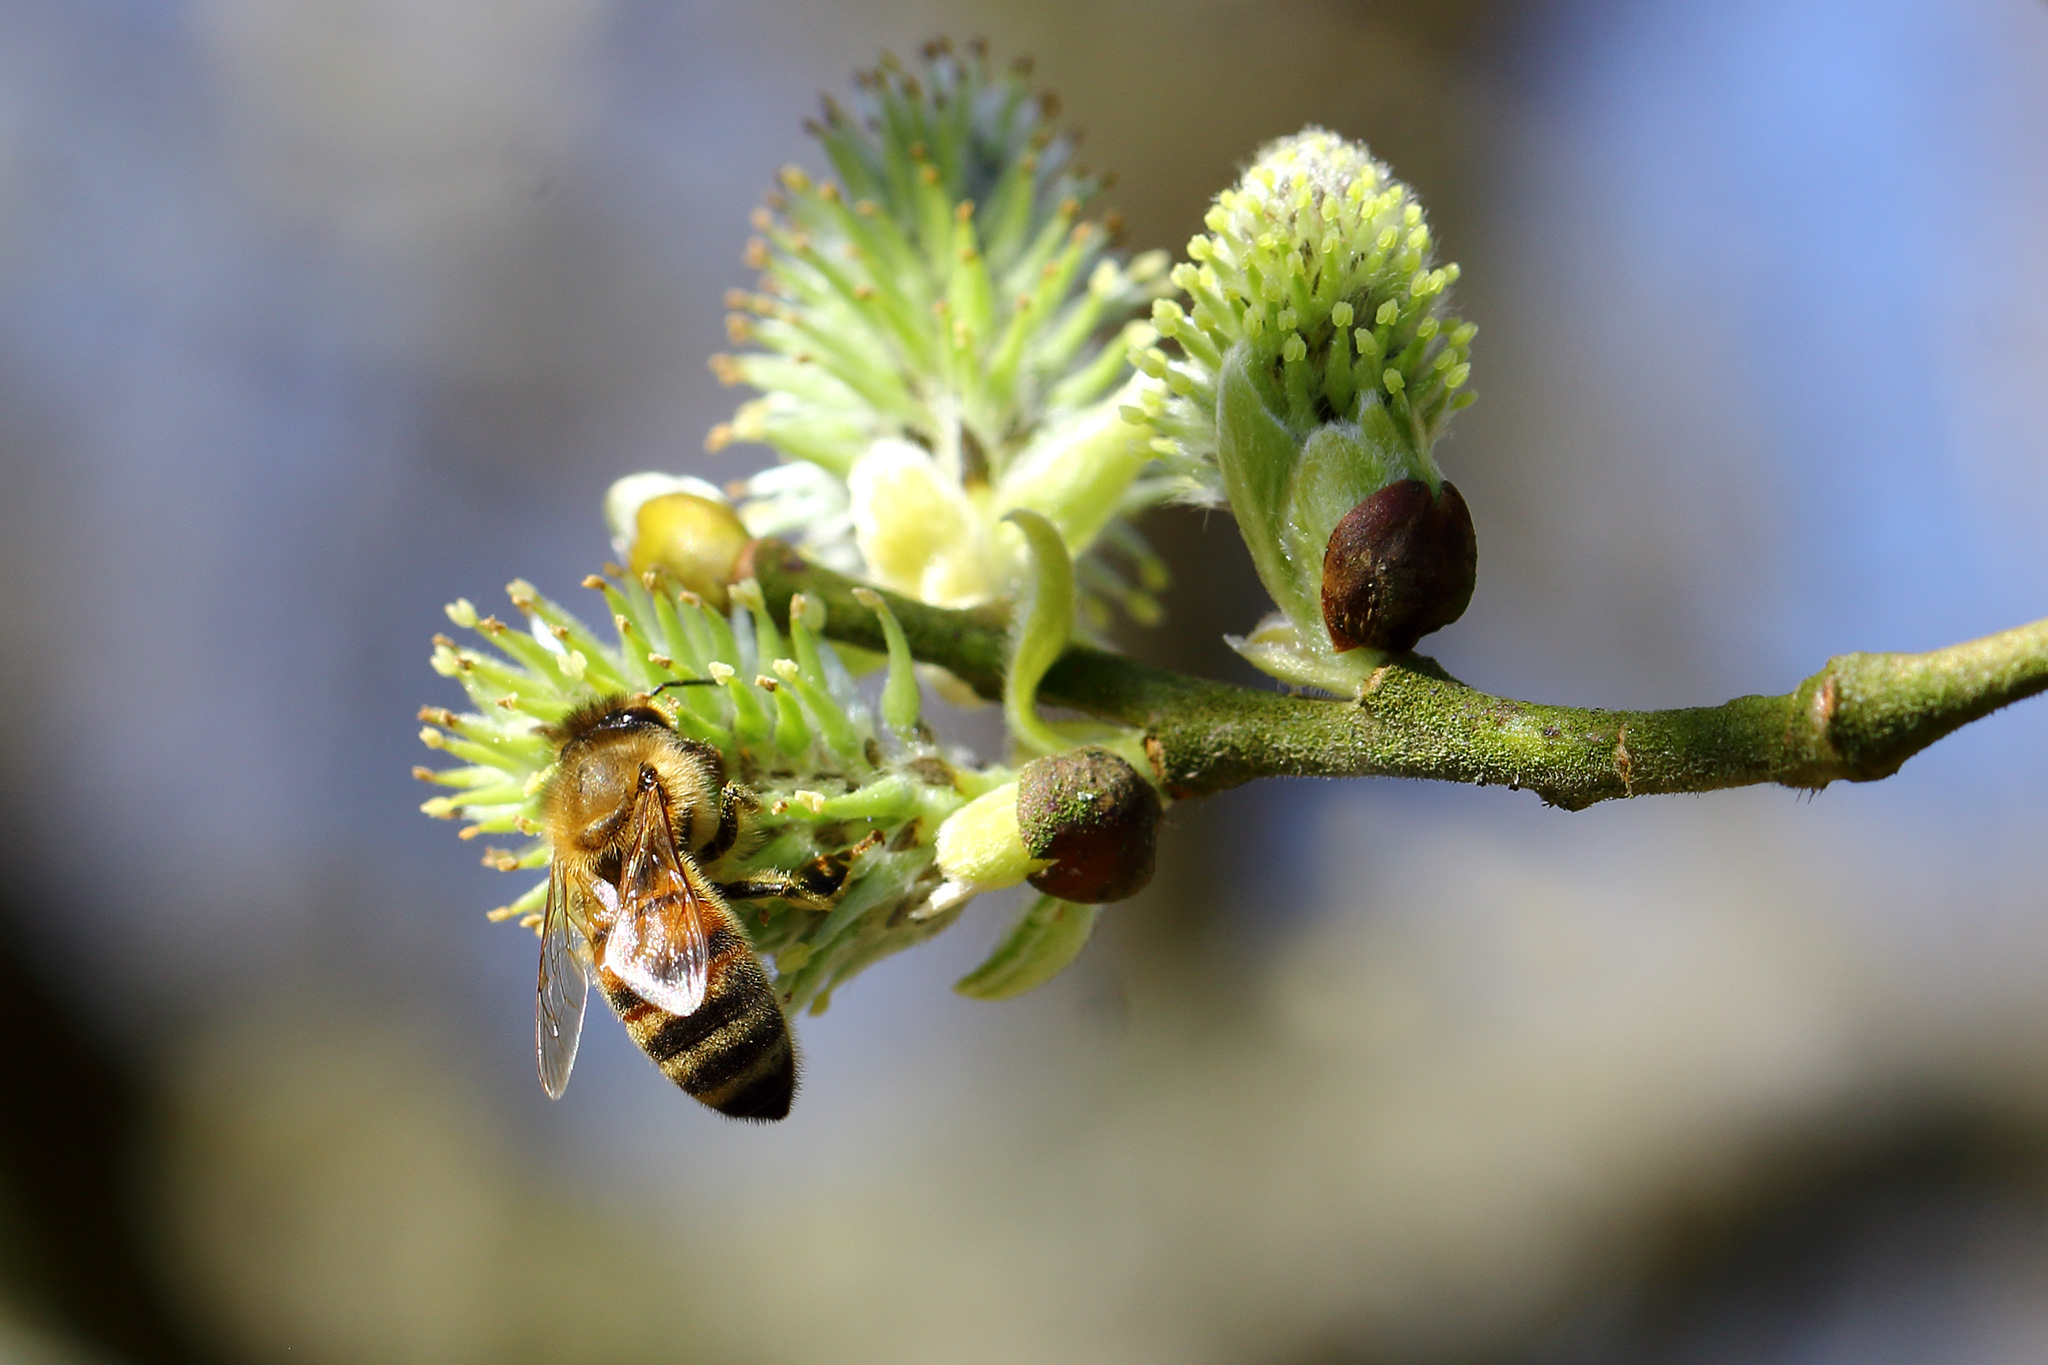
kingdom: Animalia
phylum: Arthropoda
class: Insecta
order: Hymenoptera
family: Apidae
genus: Apis
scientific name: Apis mellifera
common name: Honey bee
